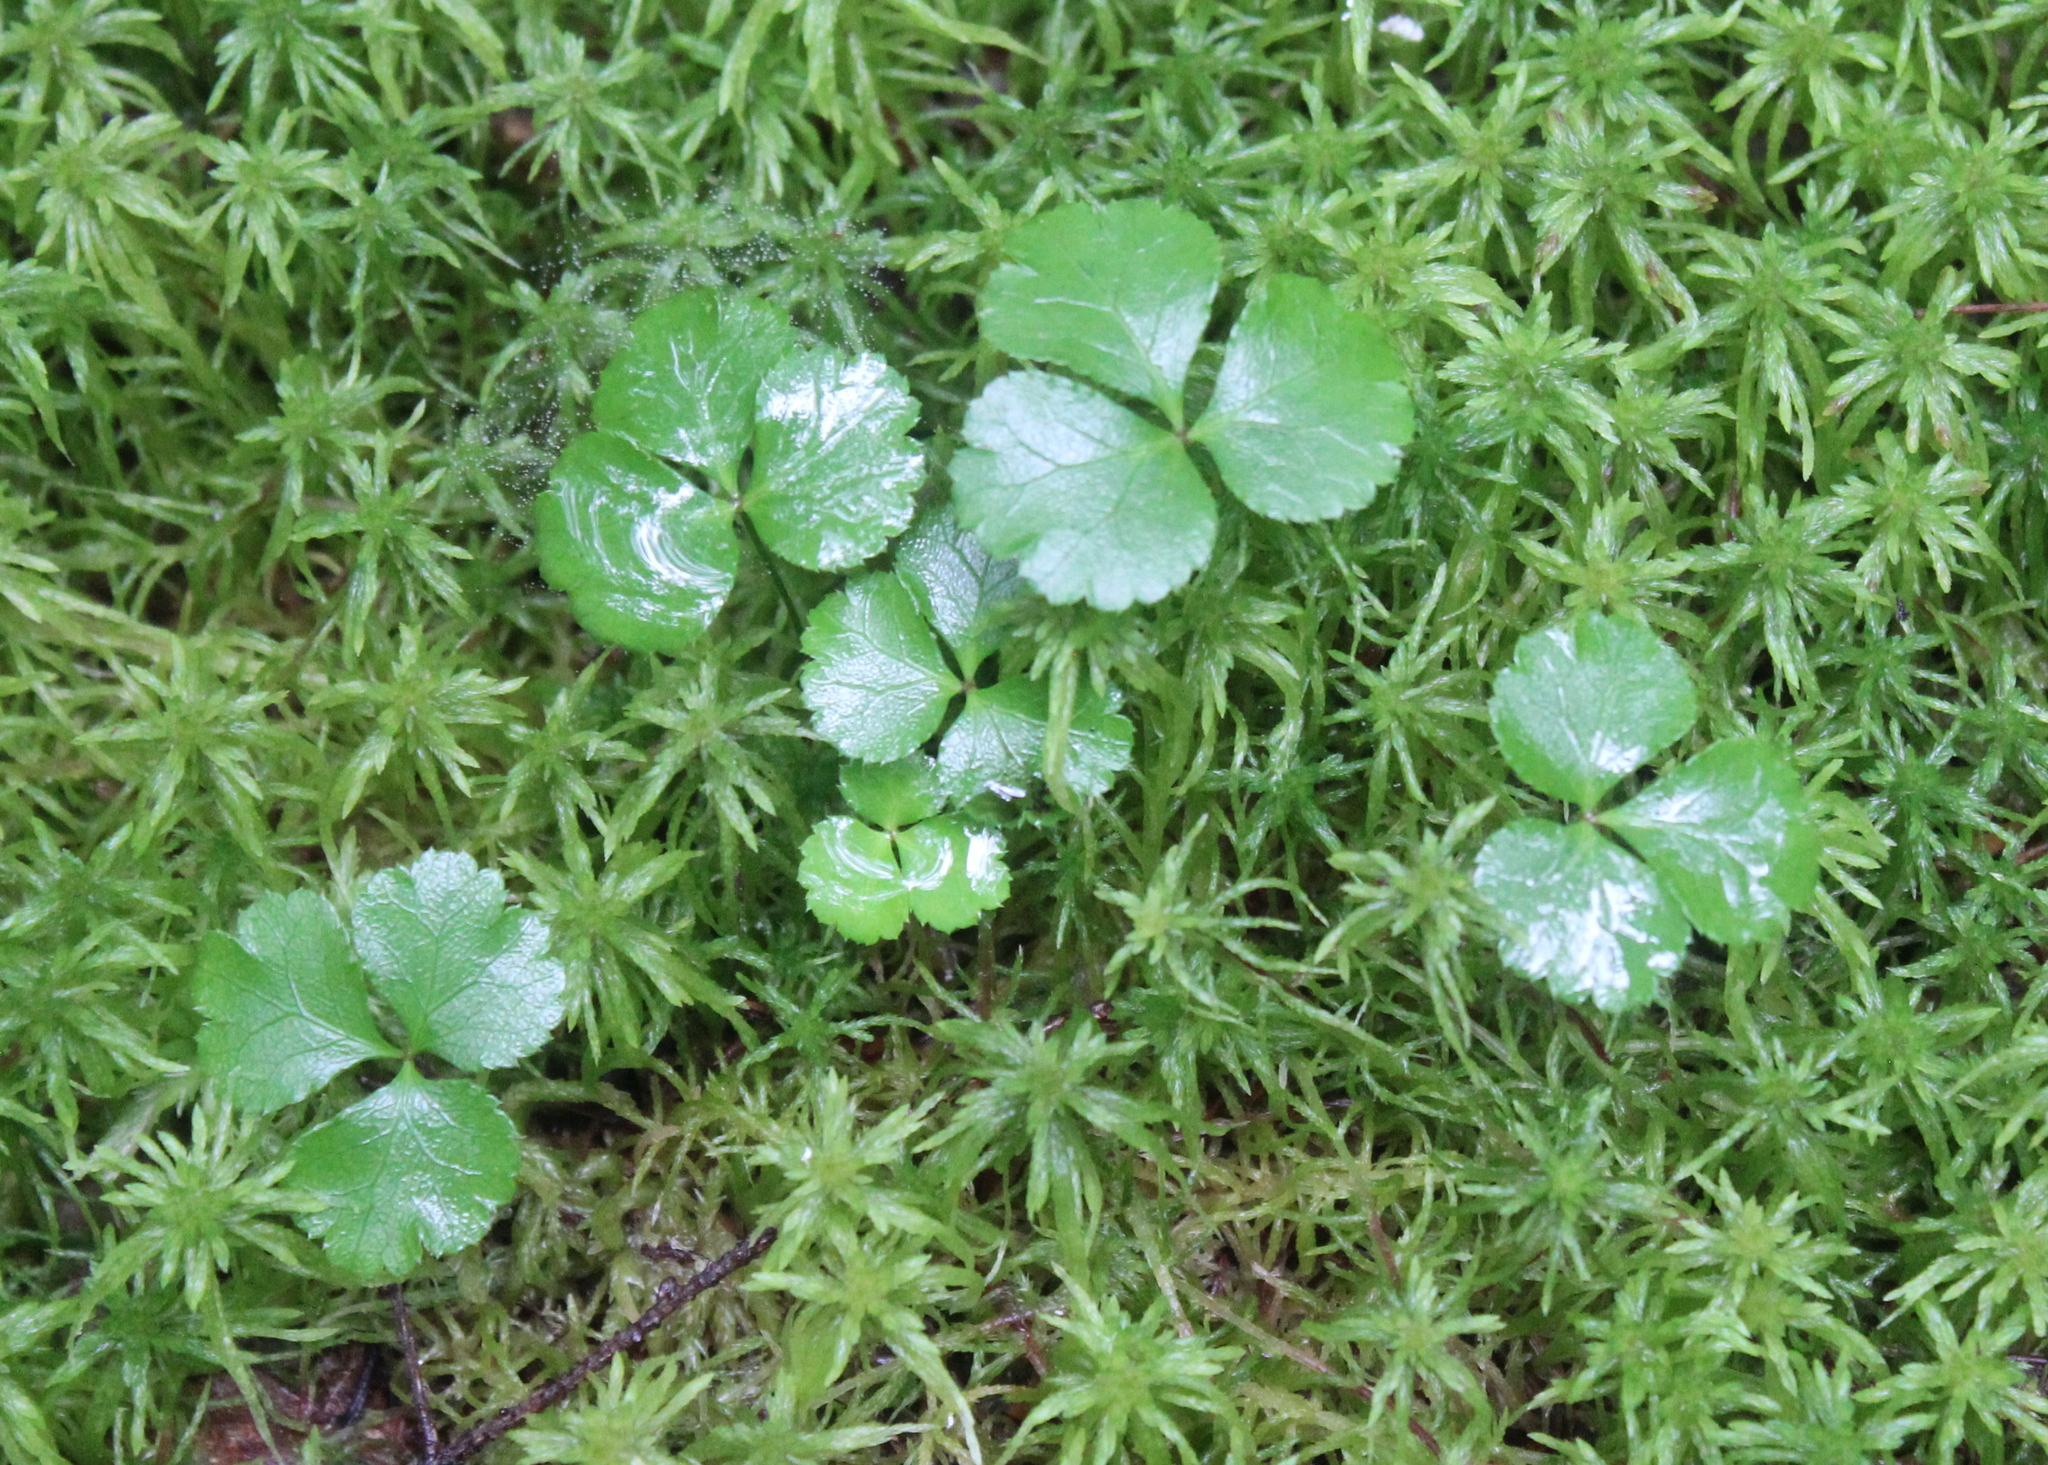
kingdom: Plantae
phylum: Tracheophyta
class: Magnoliopsida
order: Ranunculales
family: Ranunculaceae
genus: Coptis
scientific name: Coptis trifolia
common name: Canker-root
